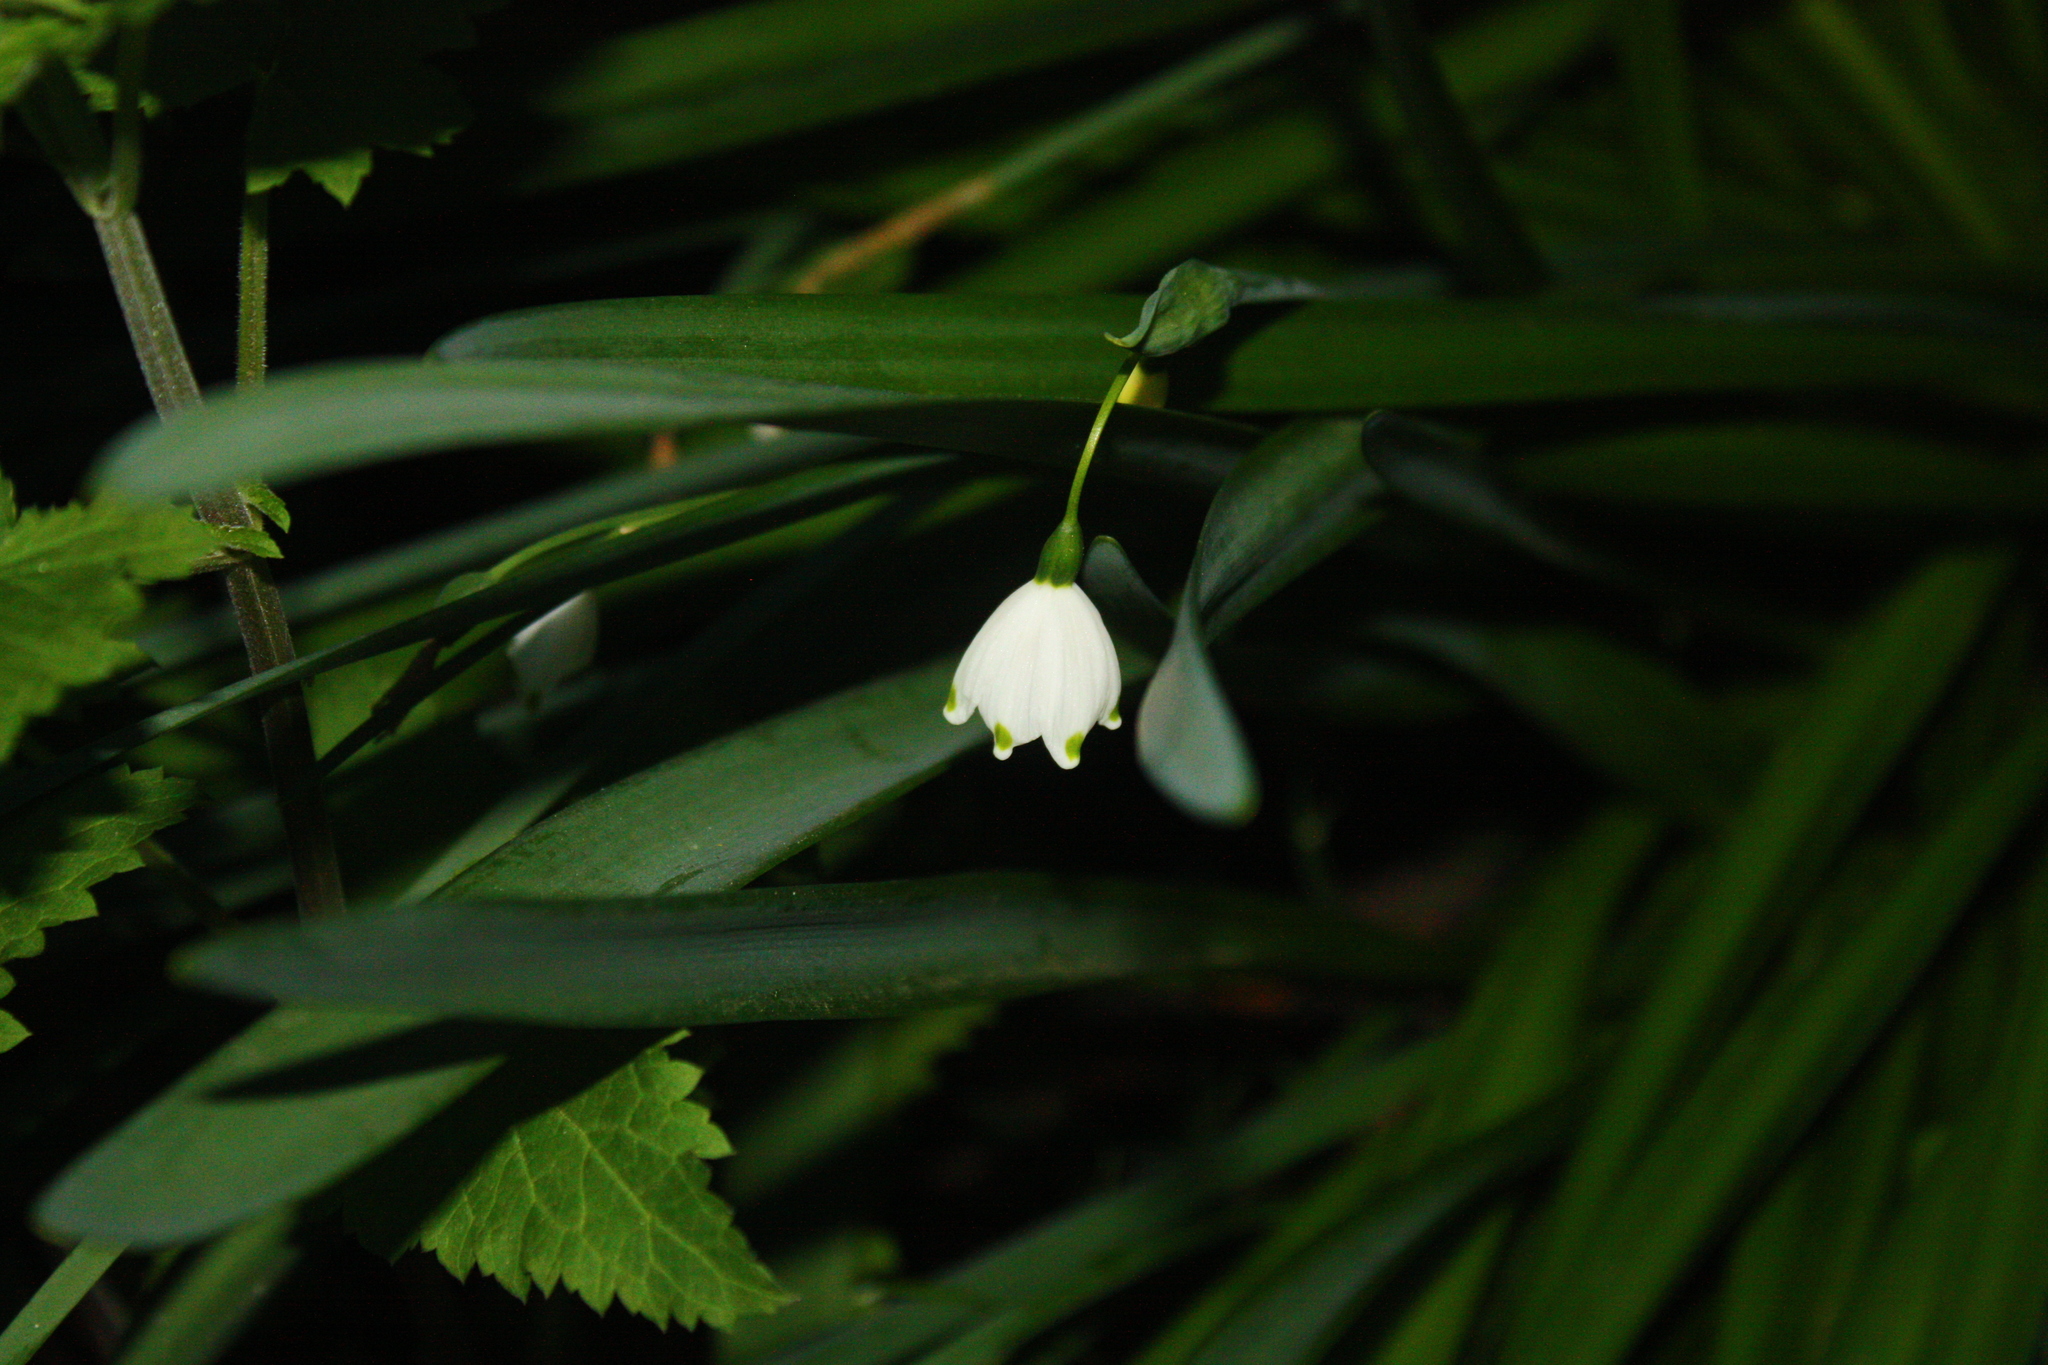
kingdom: Plantae
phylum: Tracheophyta
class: Liliopsida
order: Asparagales
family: Amaryllidaceae
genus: Leucojum
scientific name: Leucojum aestivum
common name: Summer snowflake
